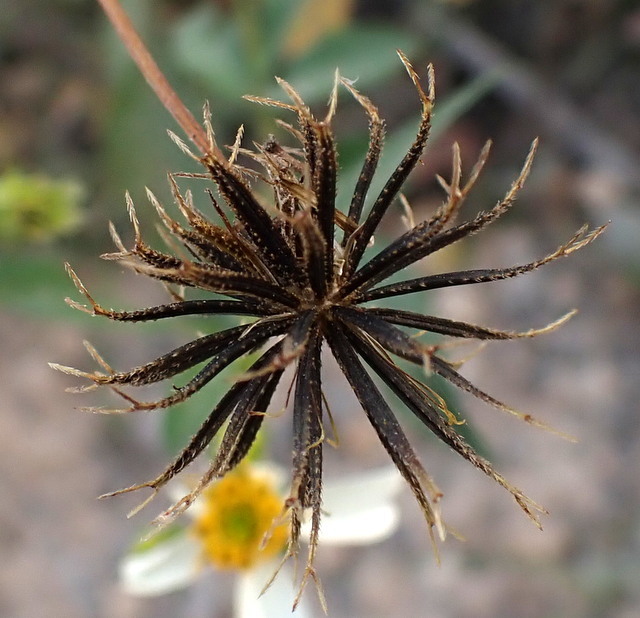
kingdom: Plantae
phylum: Tracheophyta
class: Magnoliopsida
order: Asterales
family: Asteraceae
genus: Bidens
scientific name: Bidens alba
